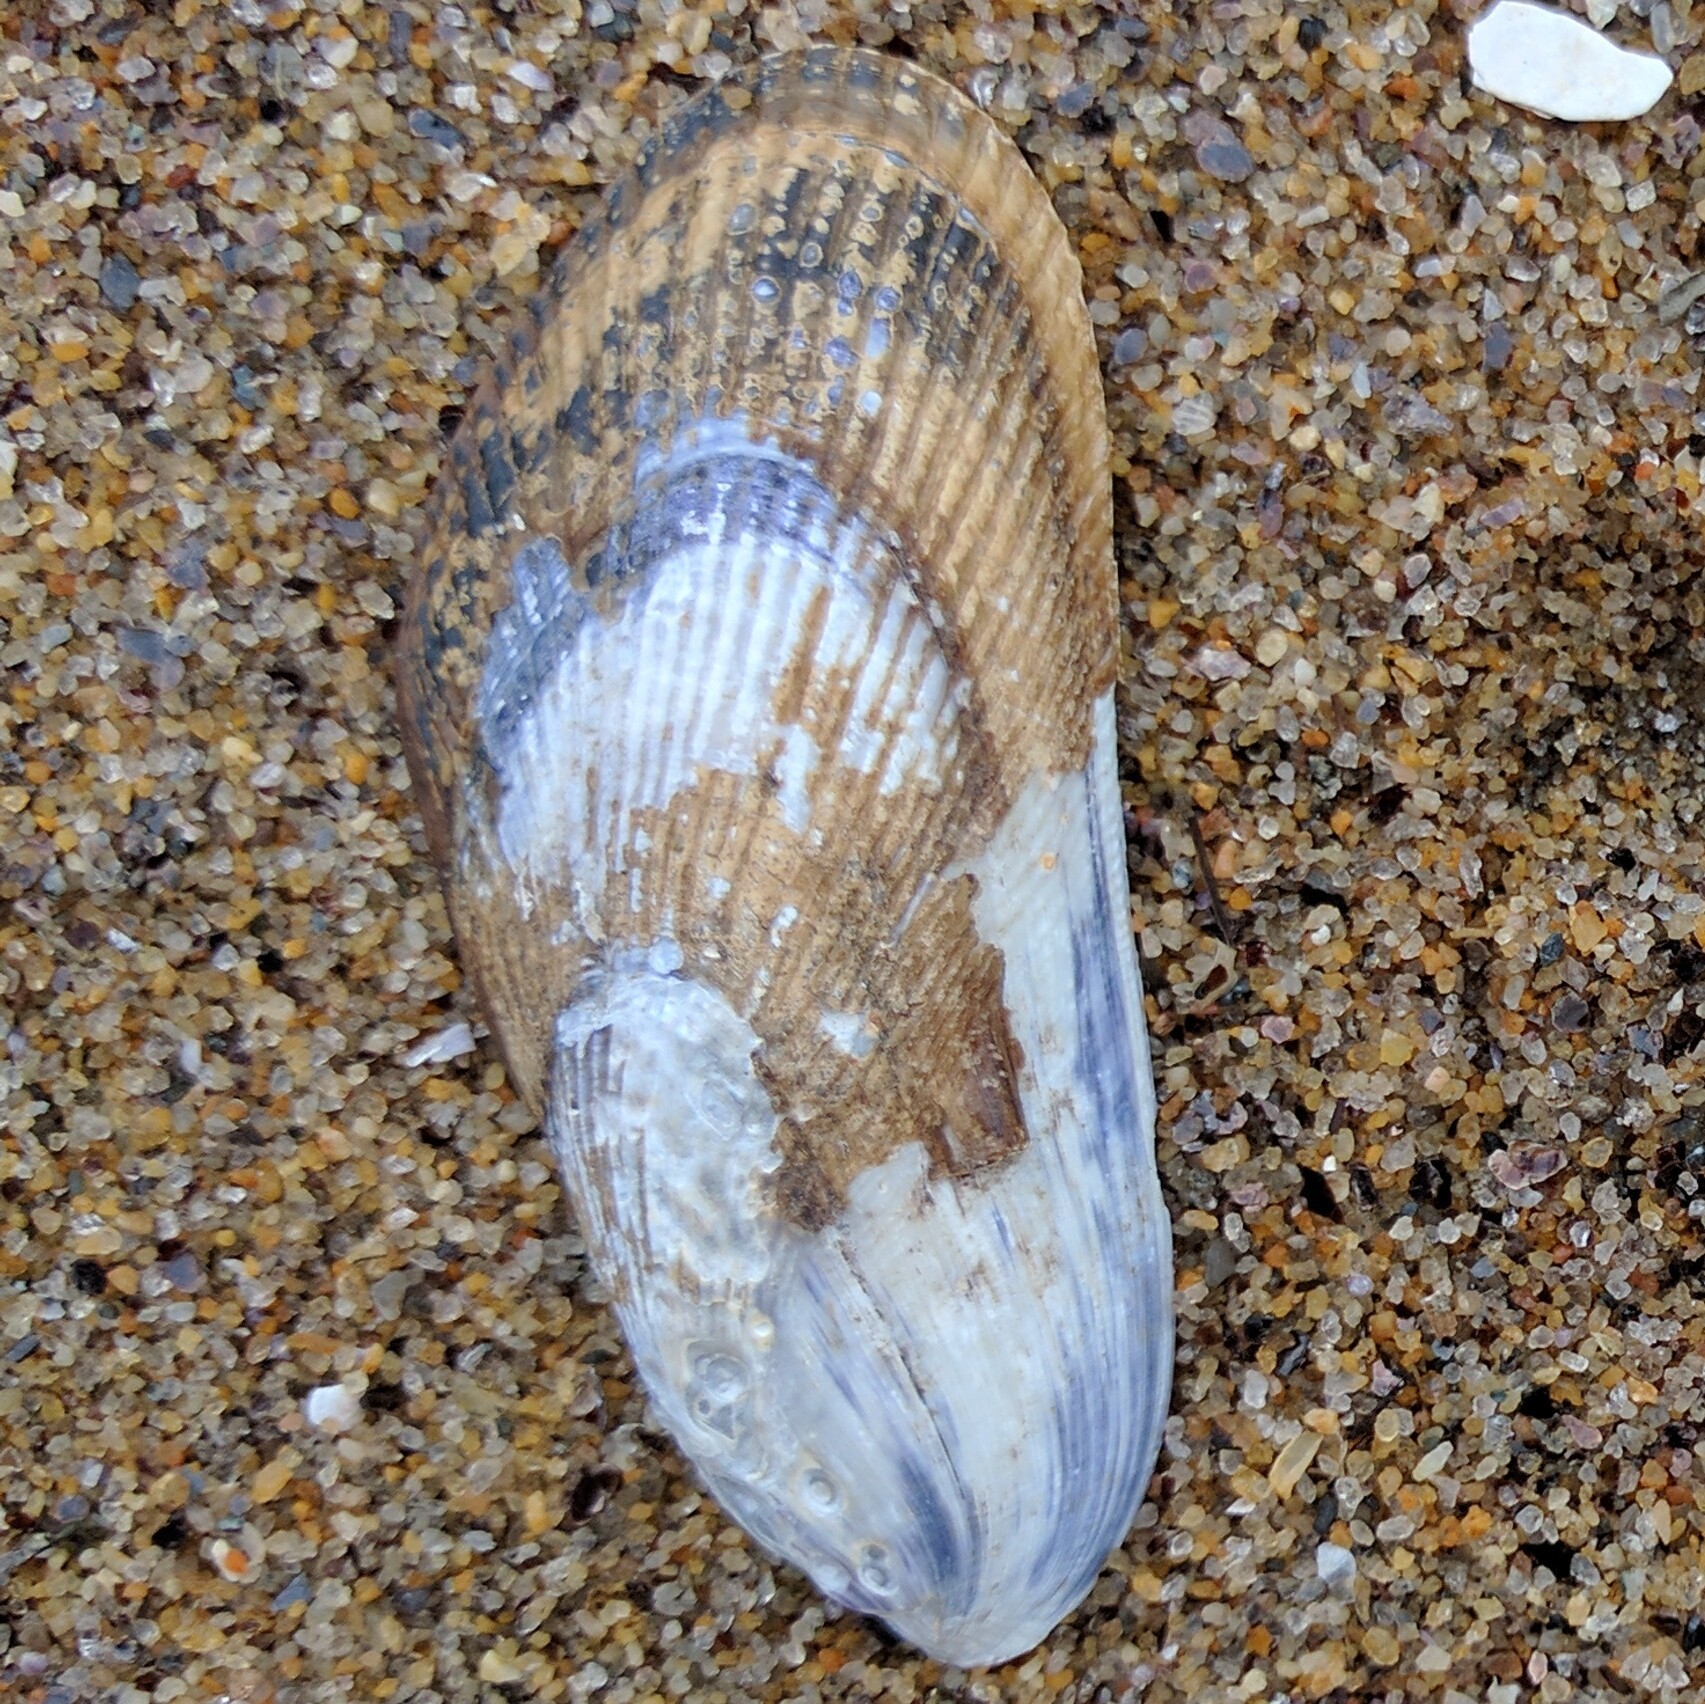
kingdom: Animalia
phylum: Mollusca
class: Bivalvia
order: Mytilida
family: Mytilidae
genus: Geukensia
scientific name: Geukensia demissa
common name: Ribbed mussel
